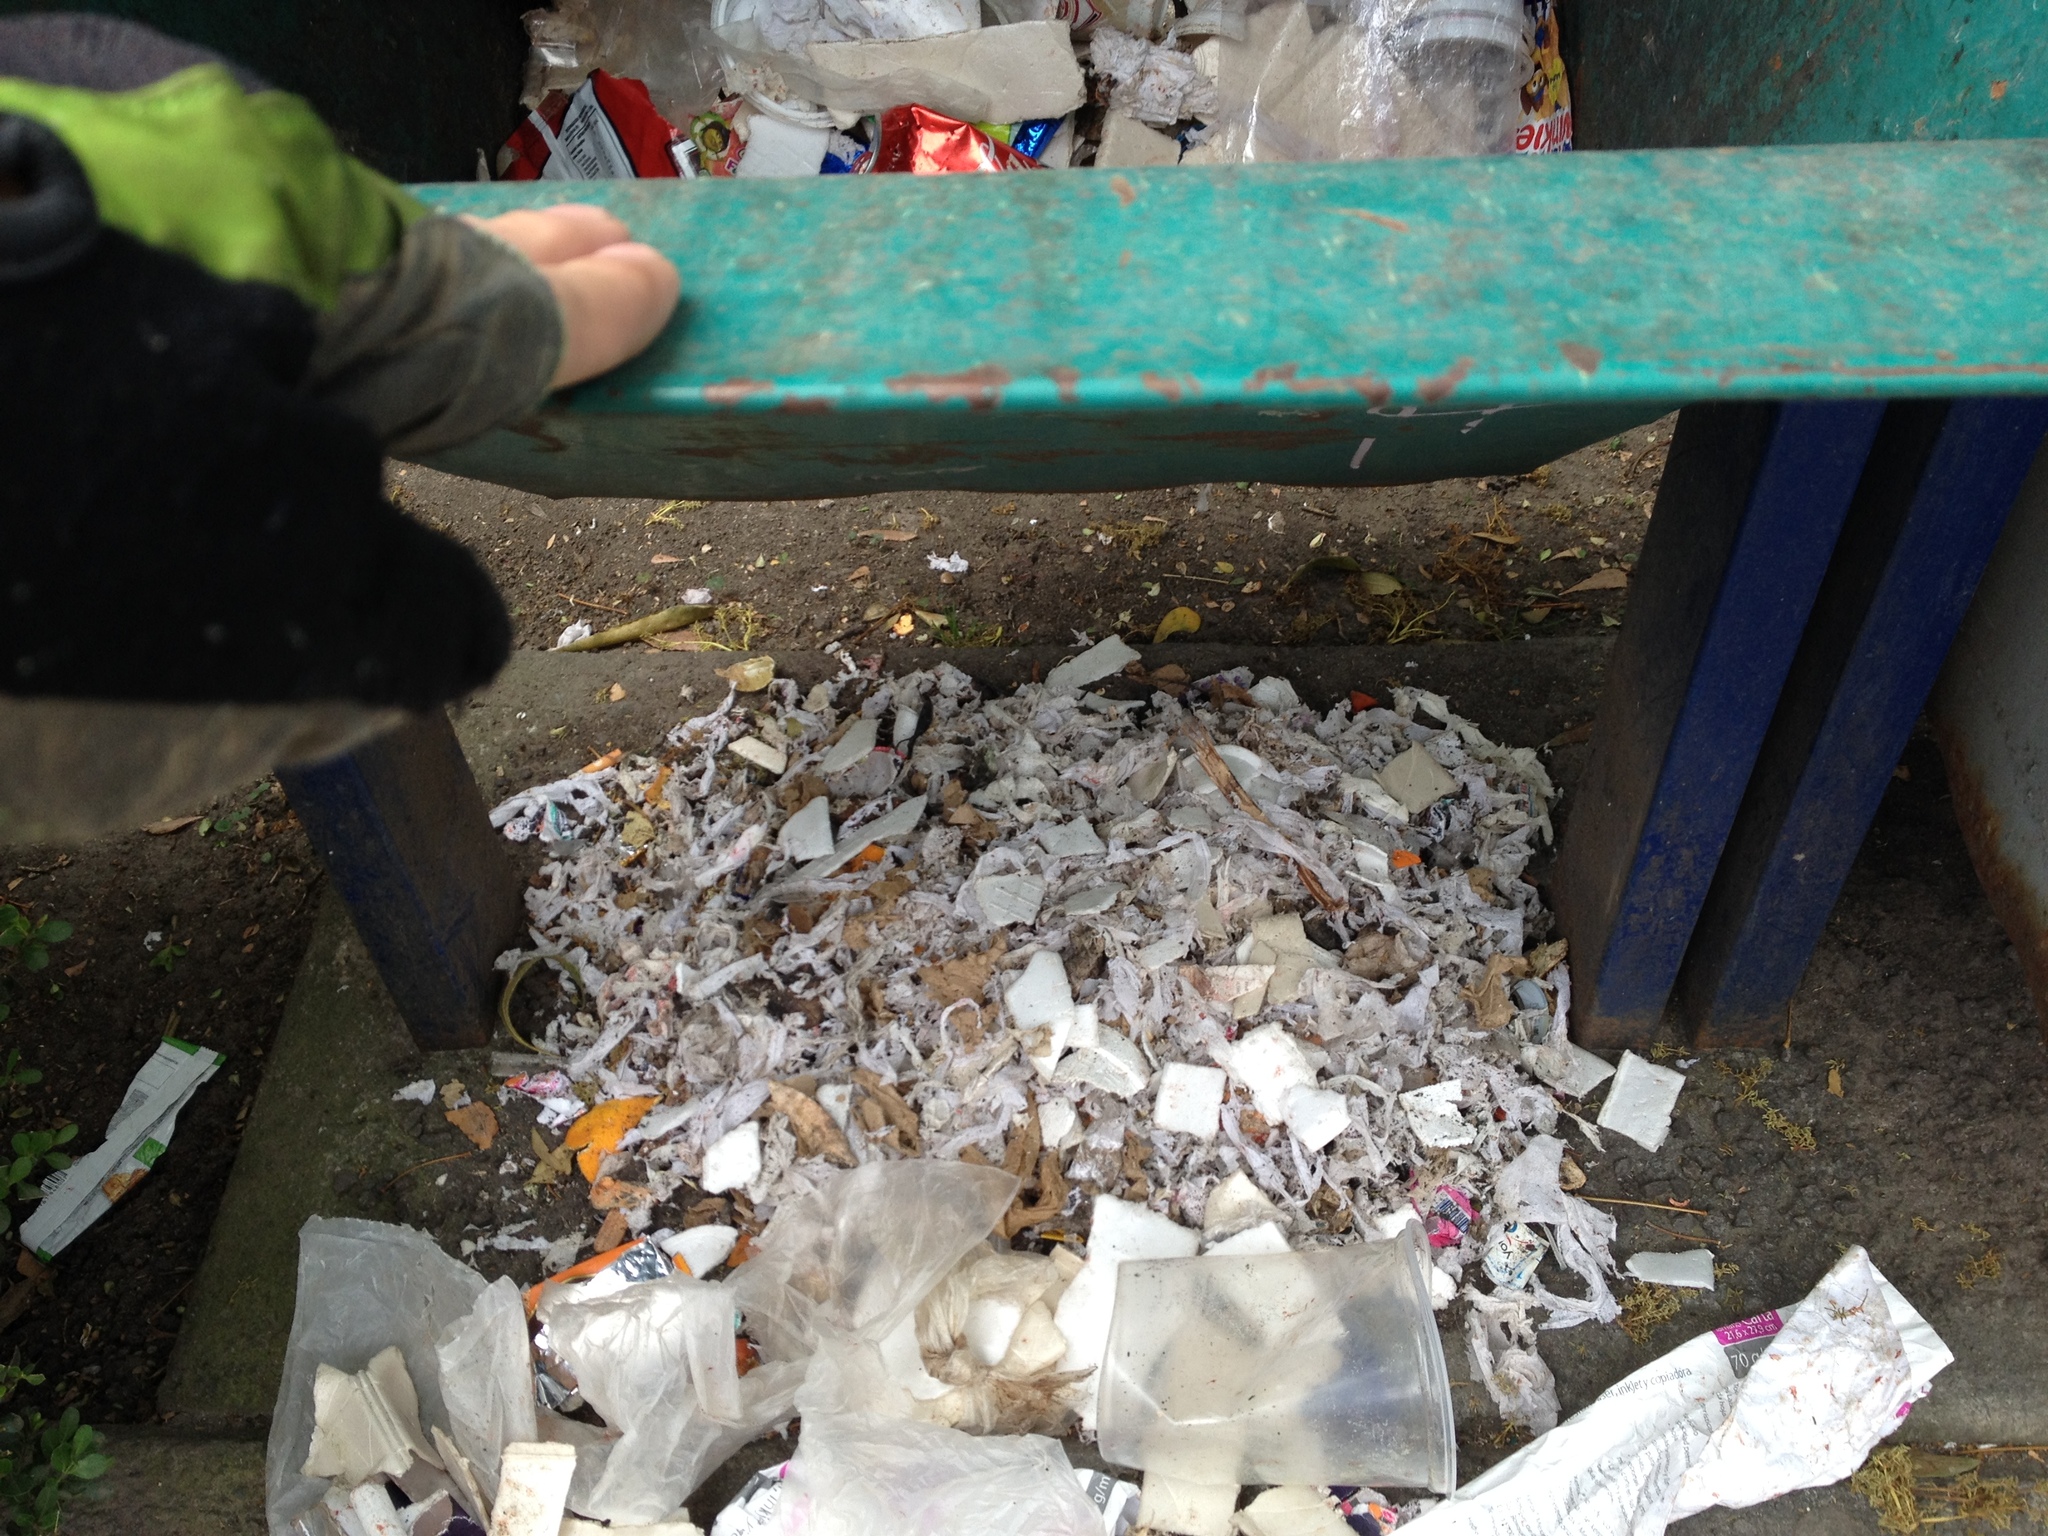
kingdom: Animalia
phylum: Chordata
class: Mammalia
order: Didelphimorphia
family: Didelphidae
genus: Didelphis
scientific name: Didelphis virginiana
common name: Virginia opossum
